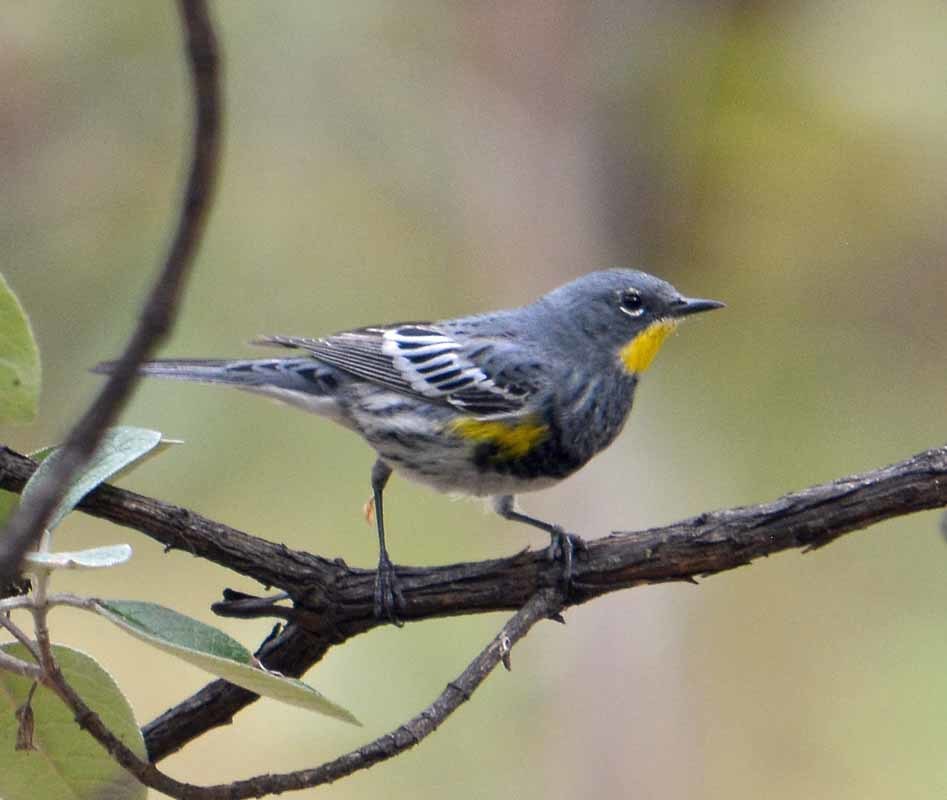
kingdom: Animalia
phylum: Chordata
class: Aves
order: Passeriformes
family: Parulidae
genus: Setophaga
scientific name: Setophaga auduboni
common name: Audubon's warbler
